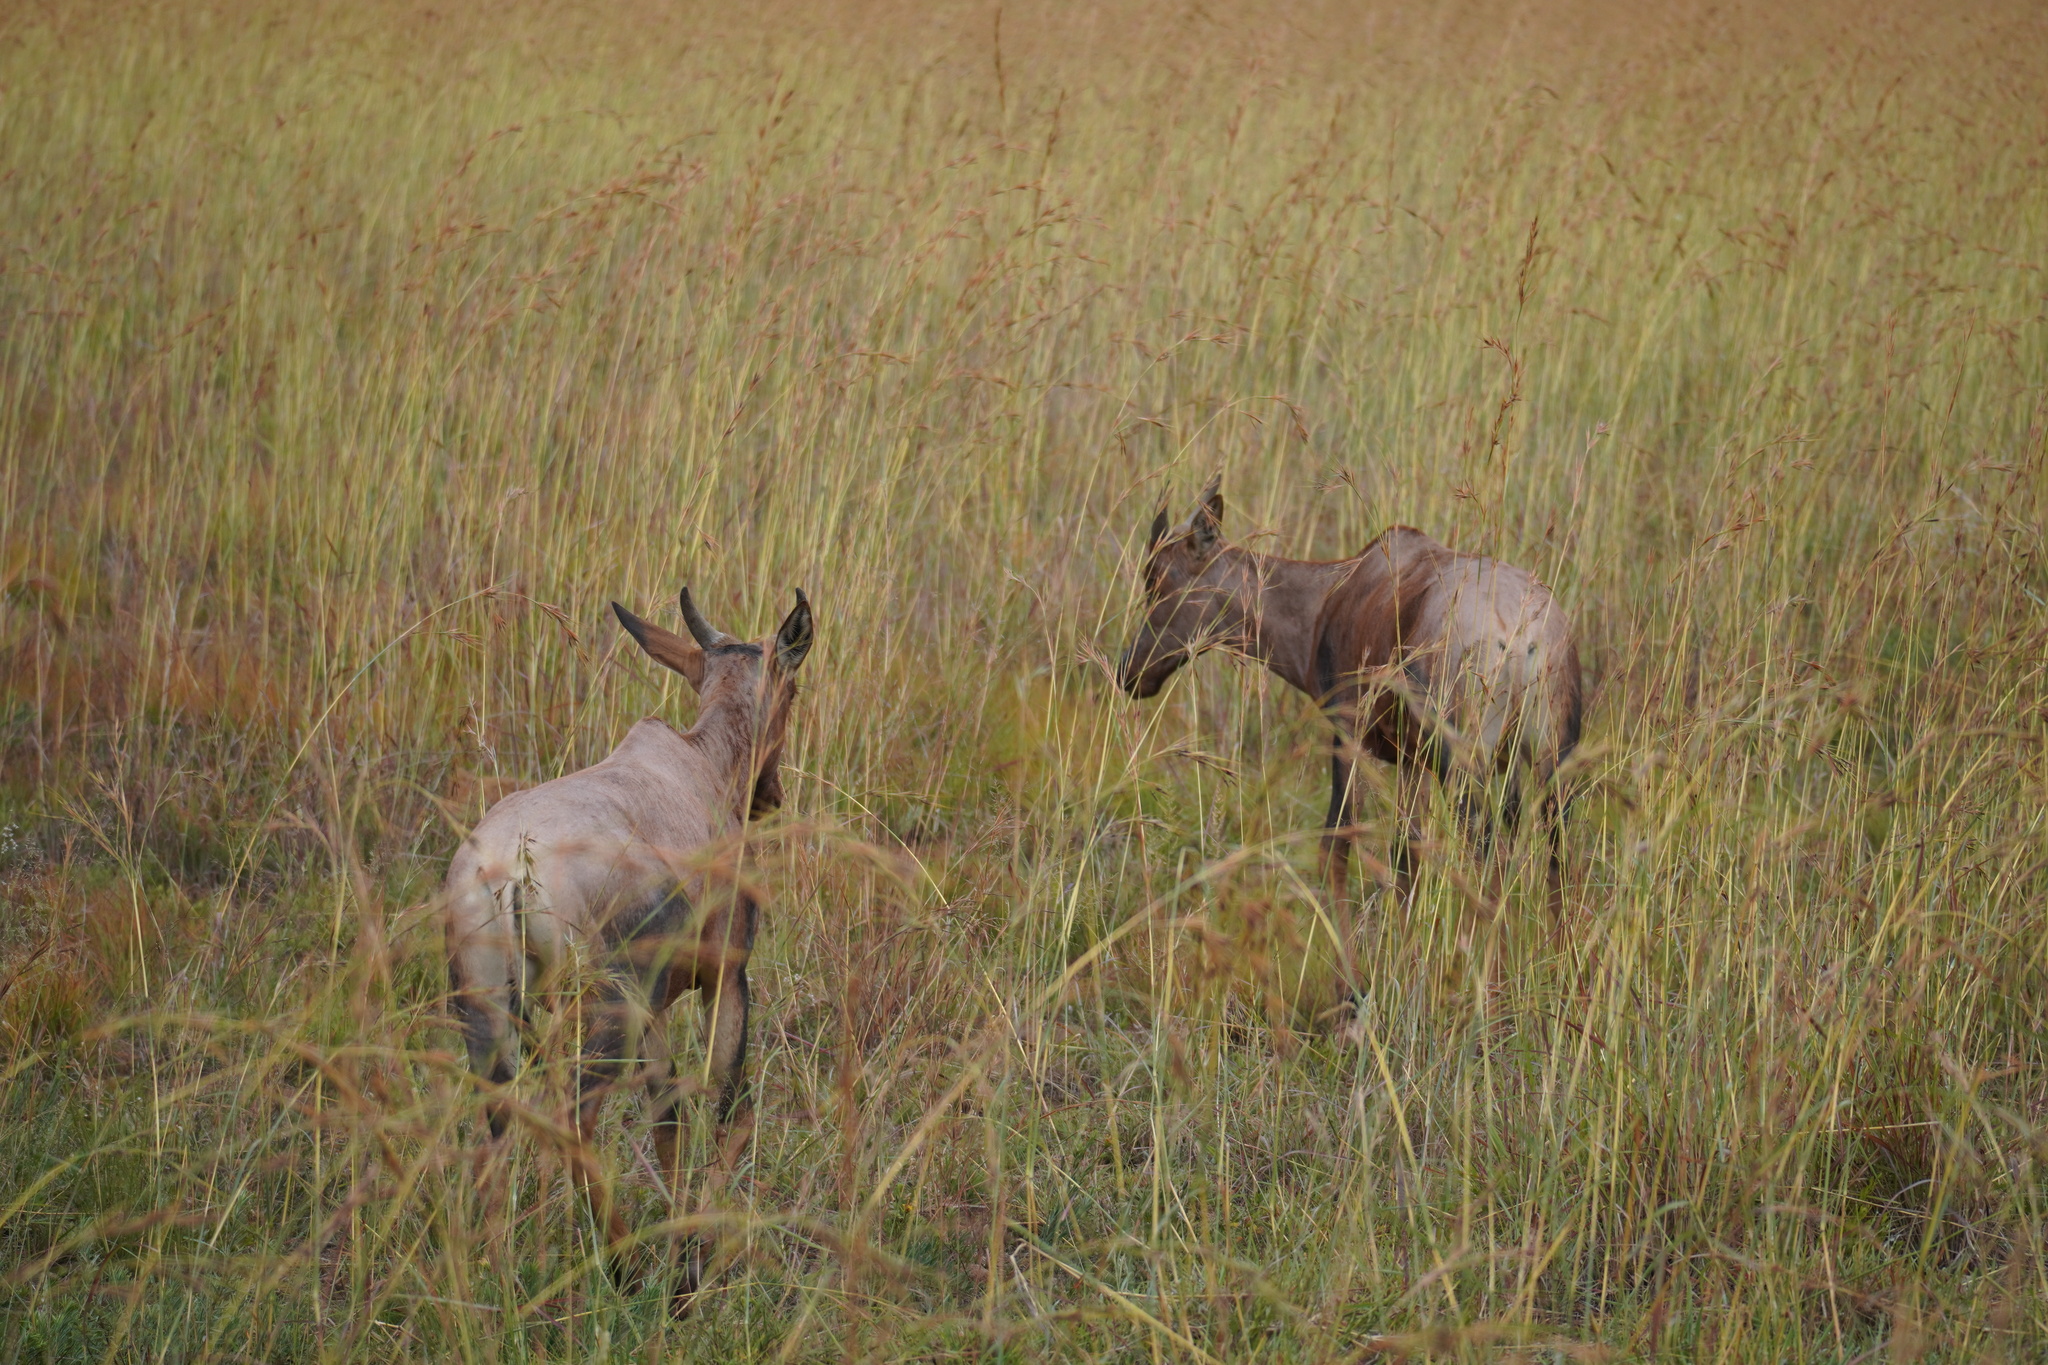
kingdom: Animalia
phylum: Chordata
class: Mammalia
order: Artiodactyla
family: Bovidae
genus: Damaliscus
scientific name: Damaliscus lunatus
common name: Common tsessebe
